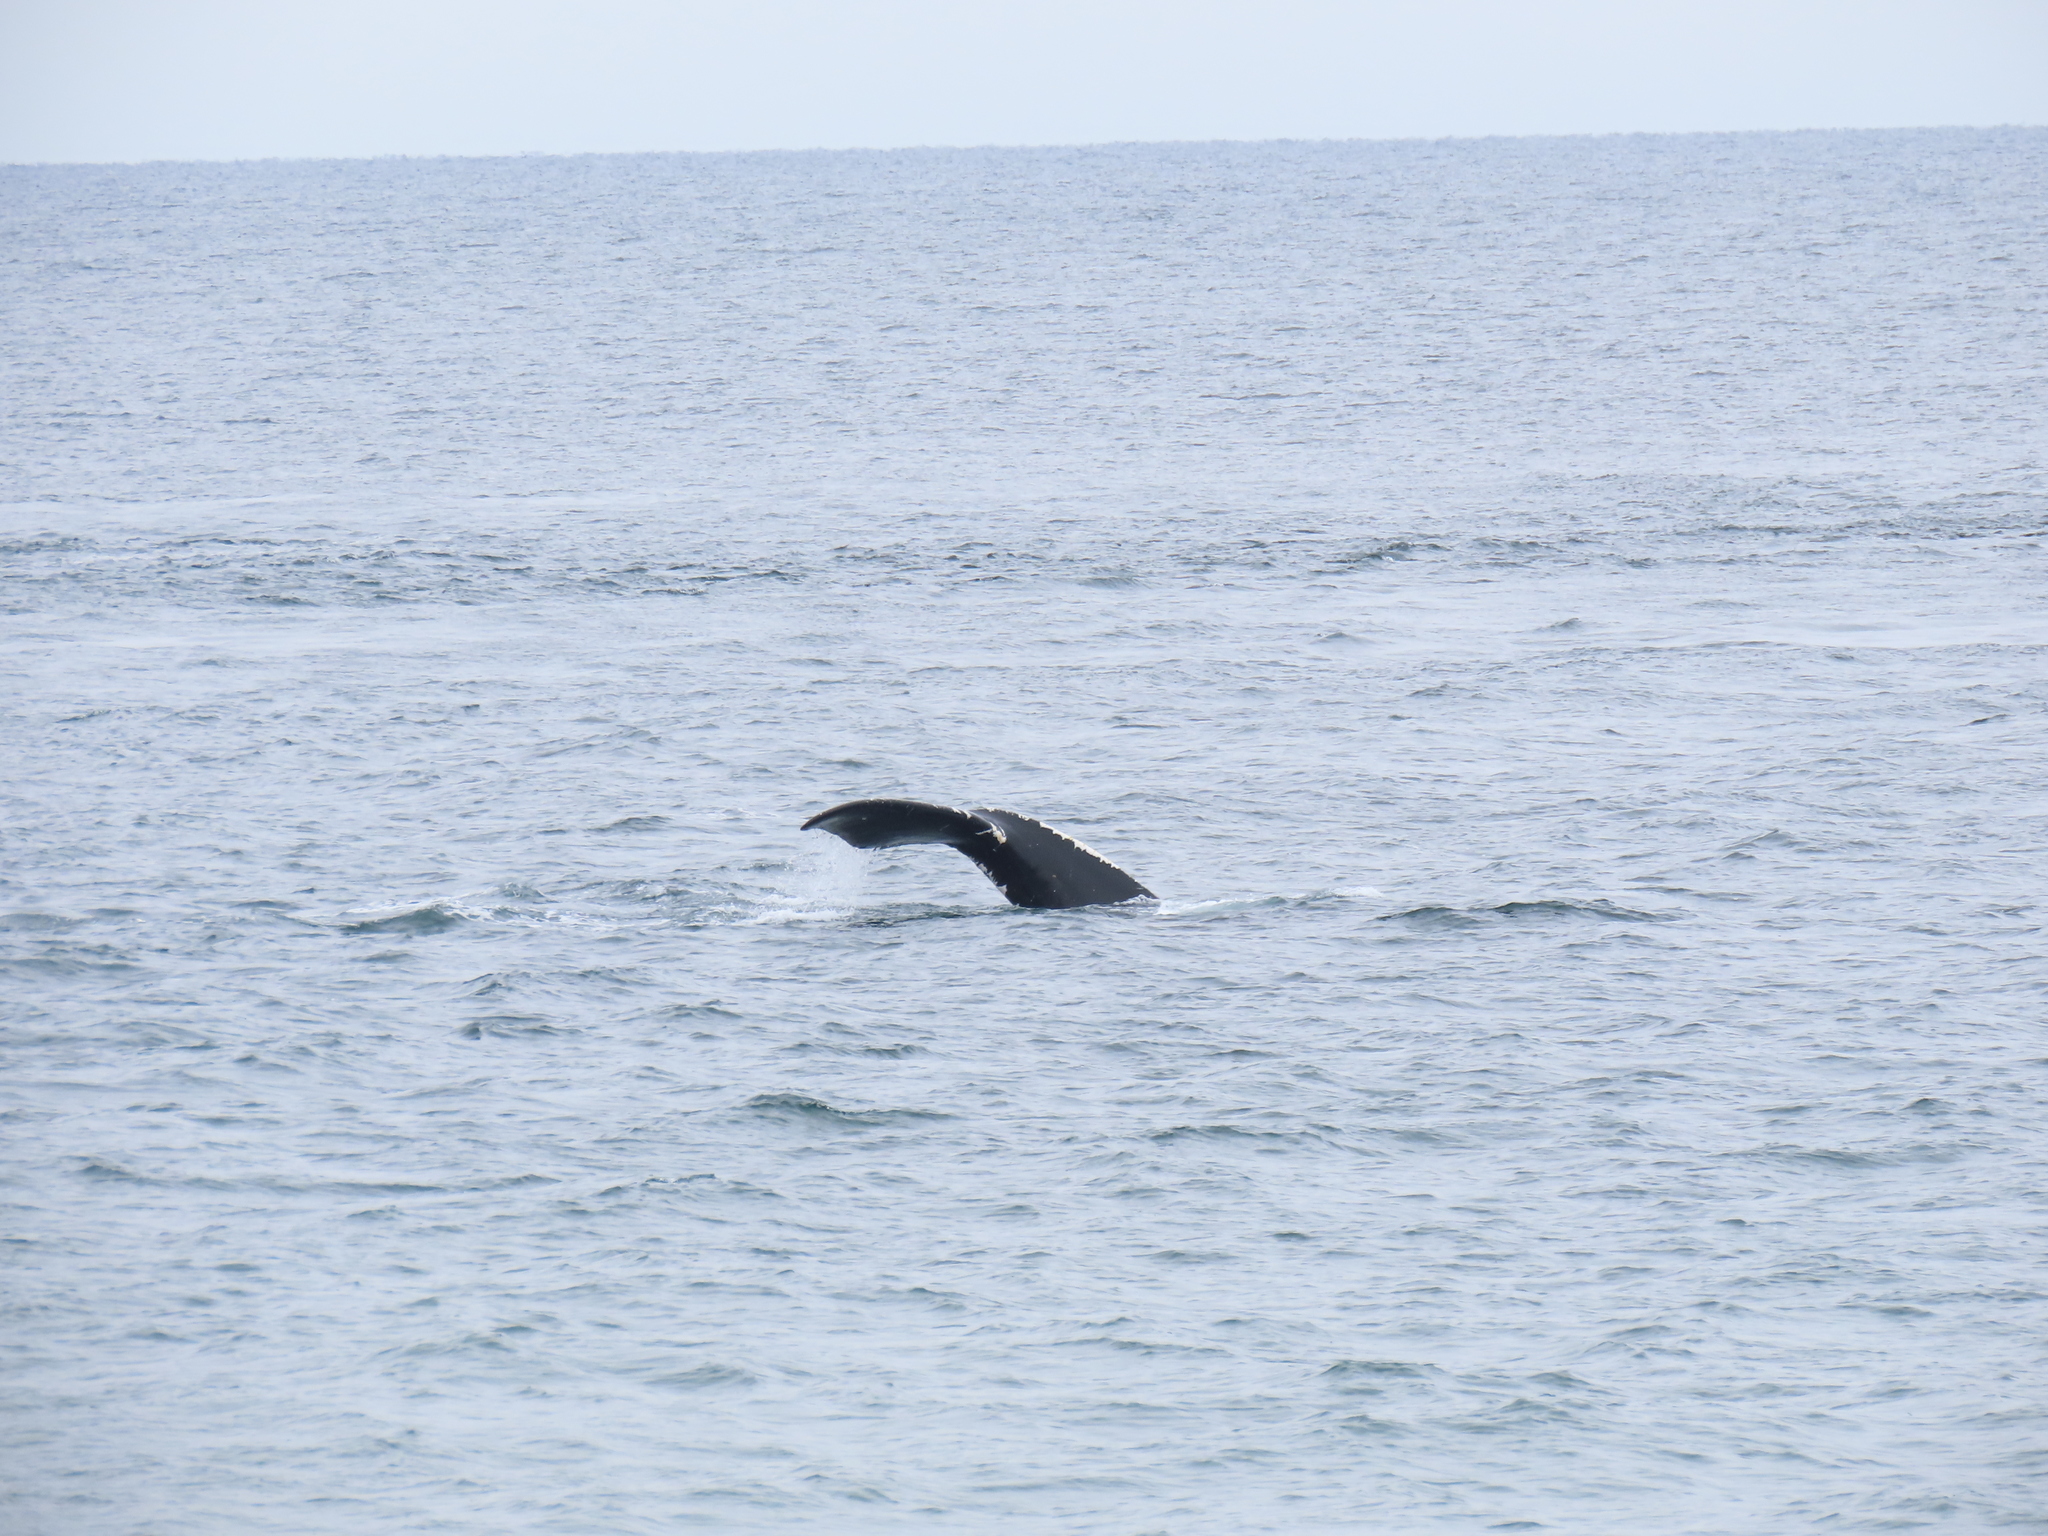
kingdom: Animalia
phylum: Chordata
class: Mammalia
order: Cetacea
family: Balaenidae
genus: Eubalaena
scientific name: Eubalaena glacialis
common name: North atlantic right whale
